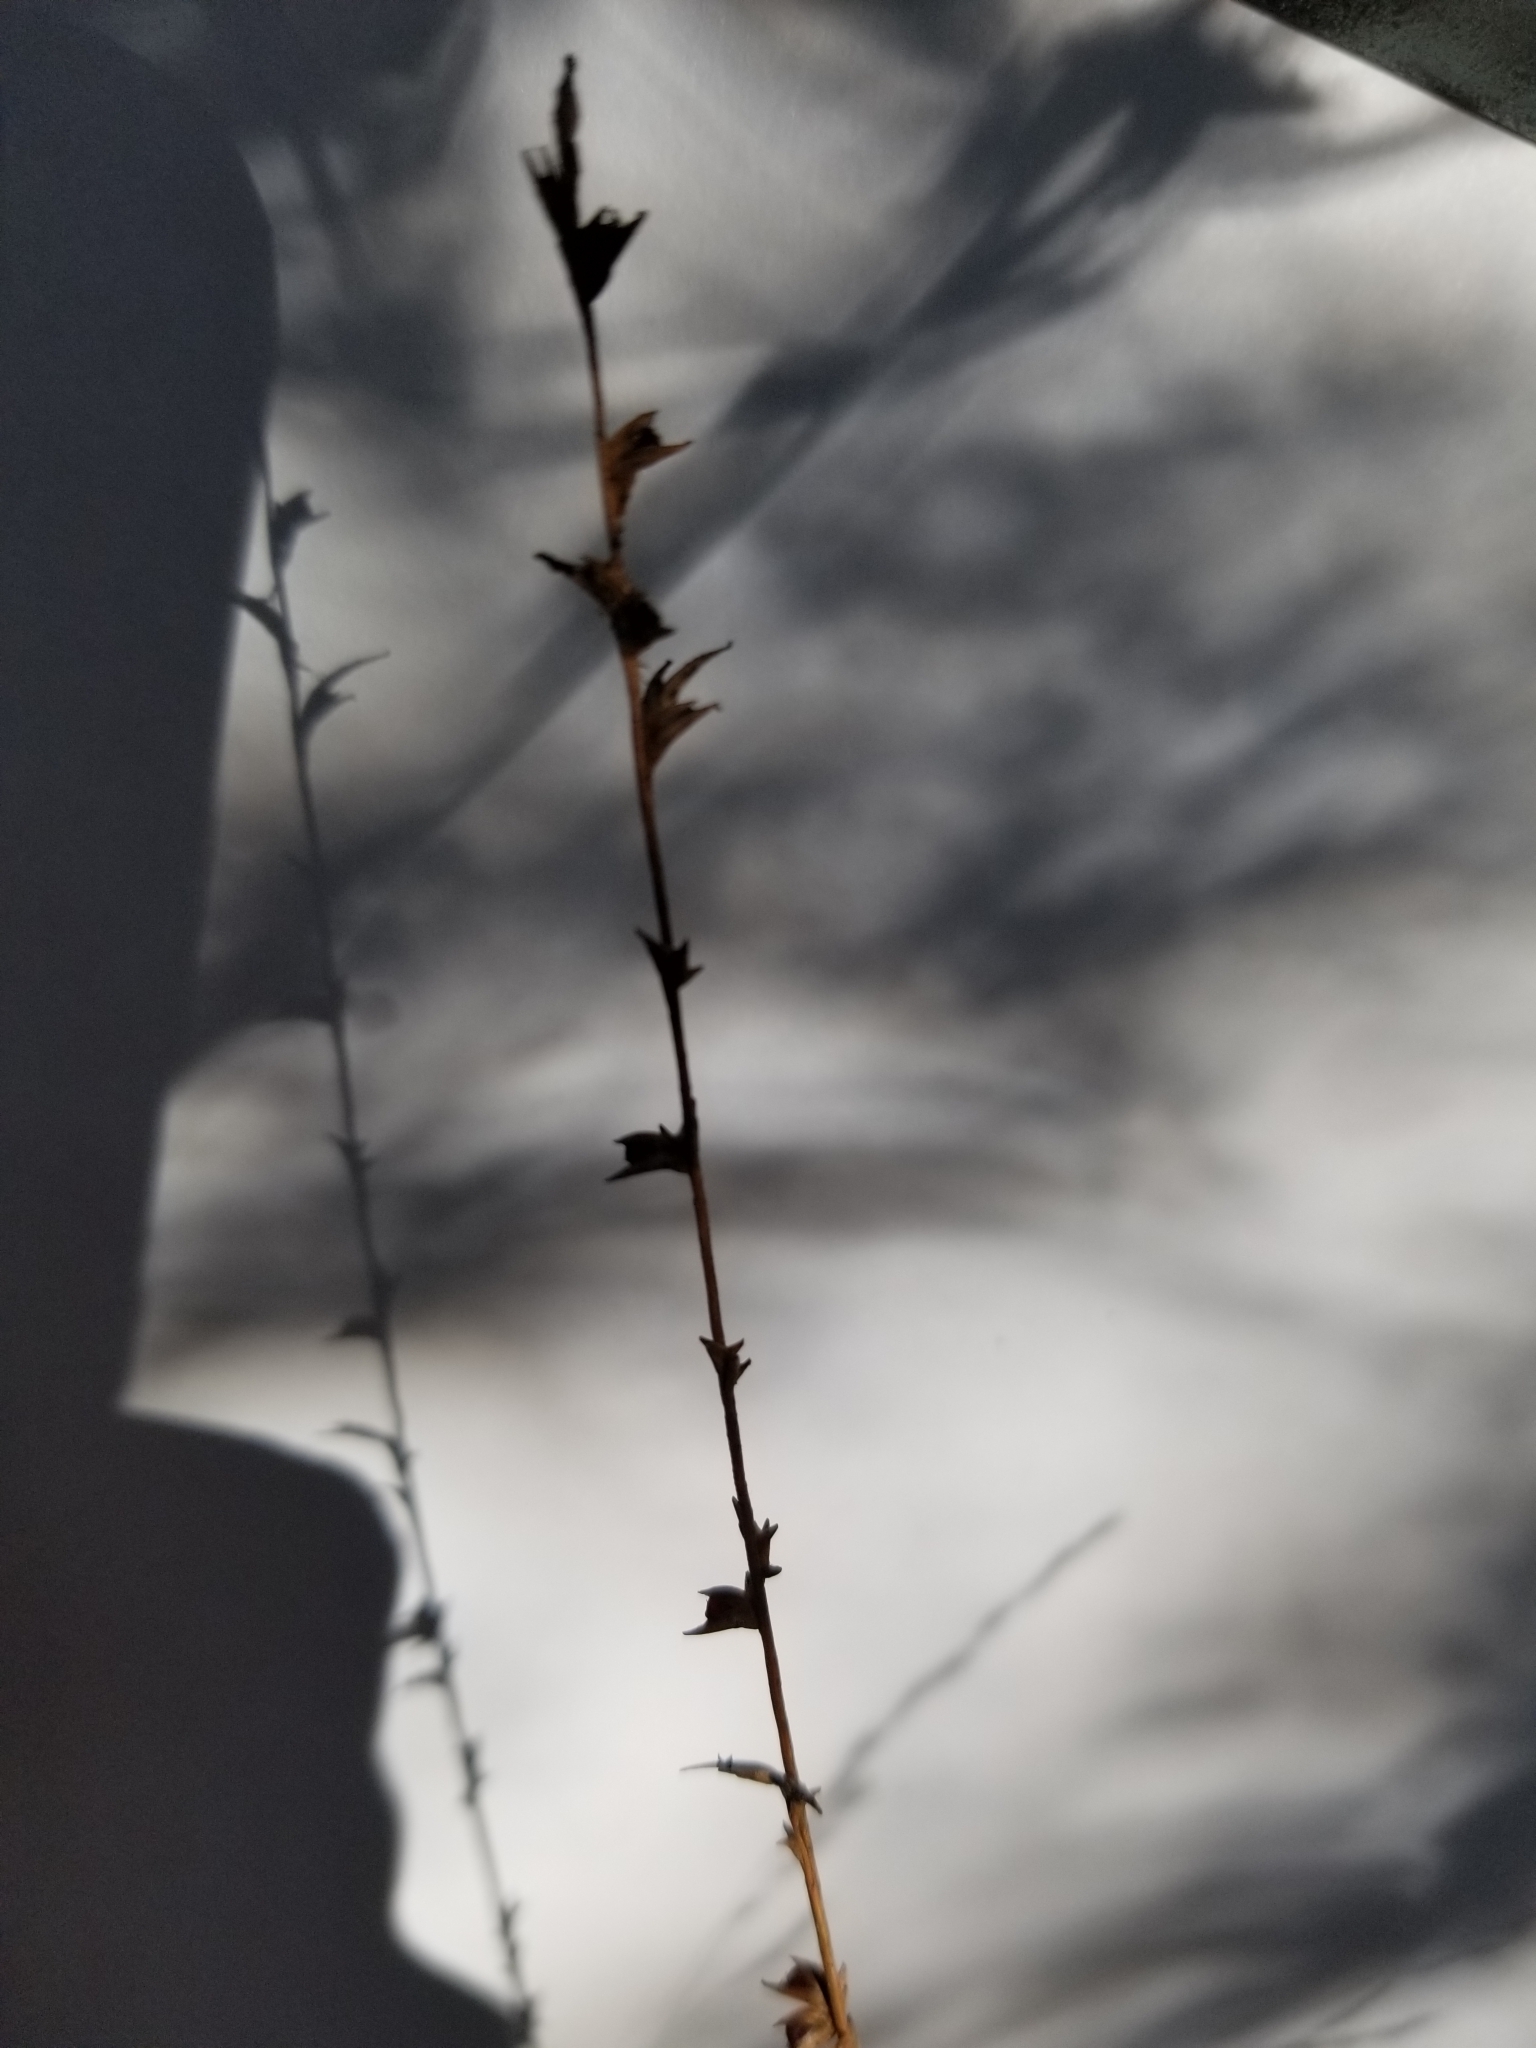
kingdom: Plantae
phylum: Tracheophyta
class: Liliopsida
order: Poales
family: Poaceae
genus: Chasmanthium
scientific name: Chasmanthium laxum
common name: Slender chasmanthium
